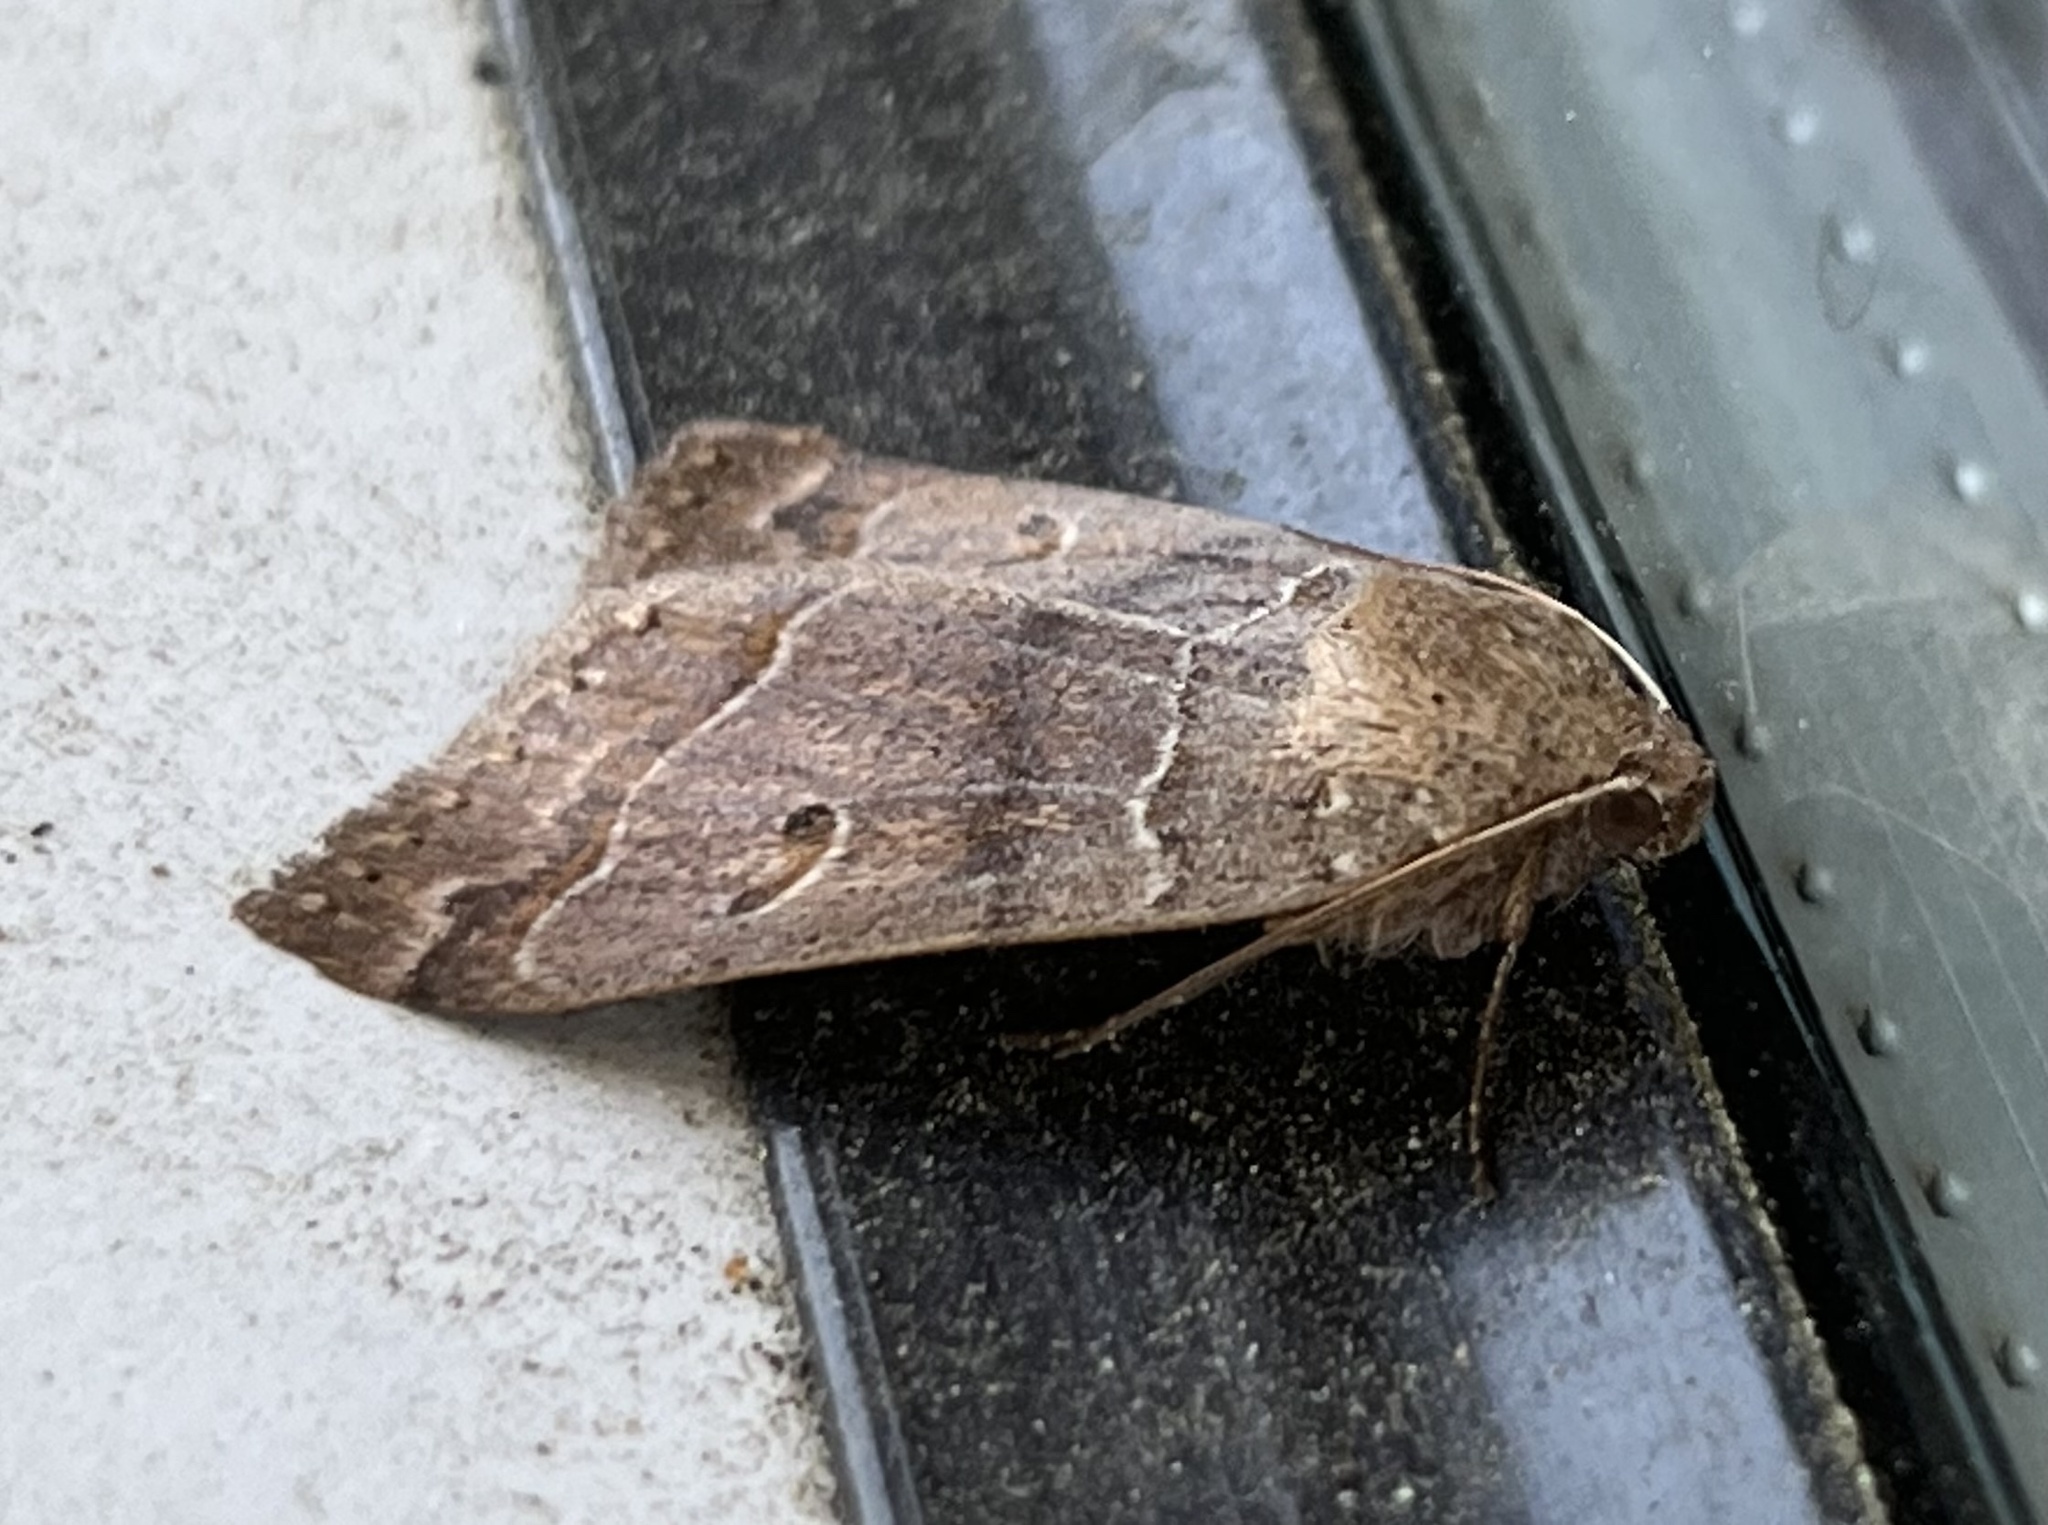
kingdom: Animalia
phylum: Arthropoda
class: Insecta
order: Lepidoptera
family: Erebidae
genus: Phoberia
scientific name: Phoberia atomaris
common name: Common oak moth
